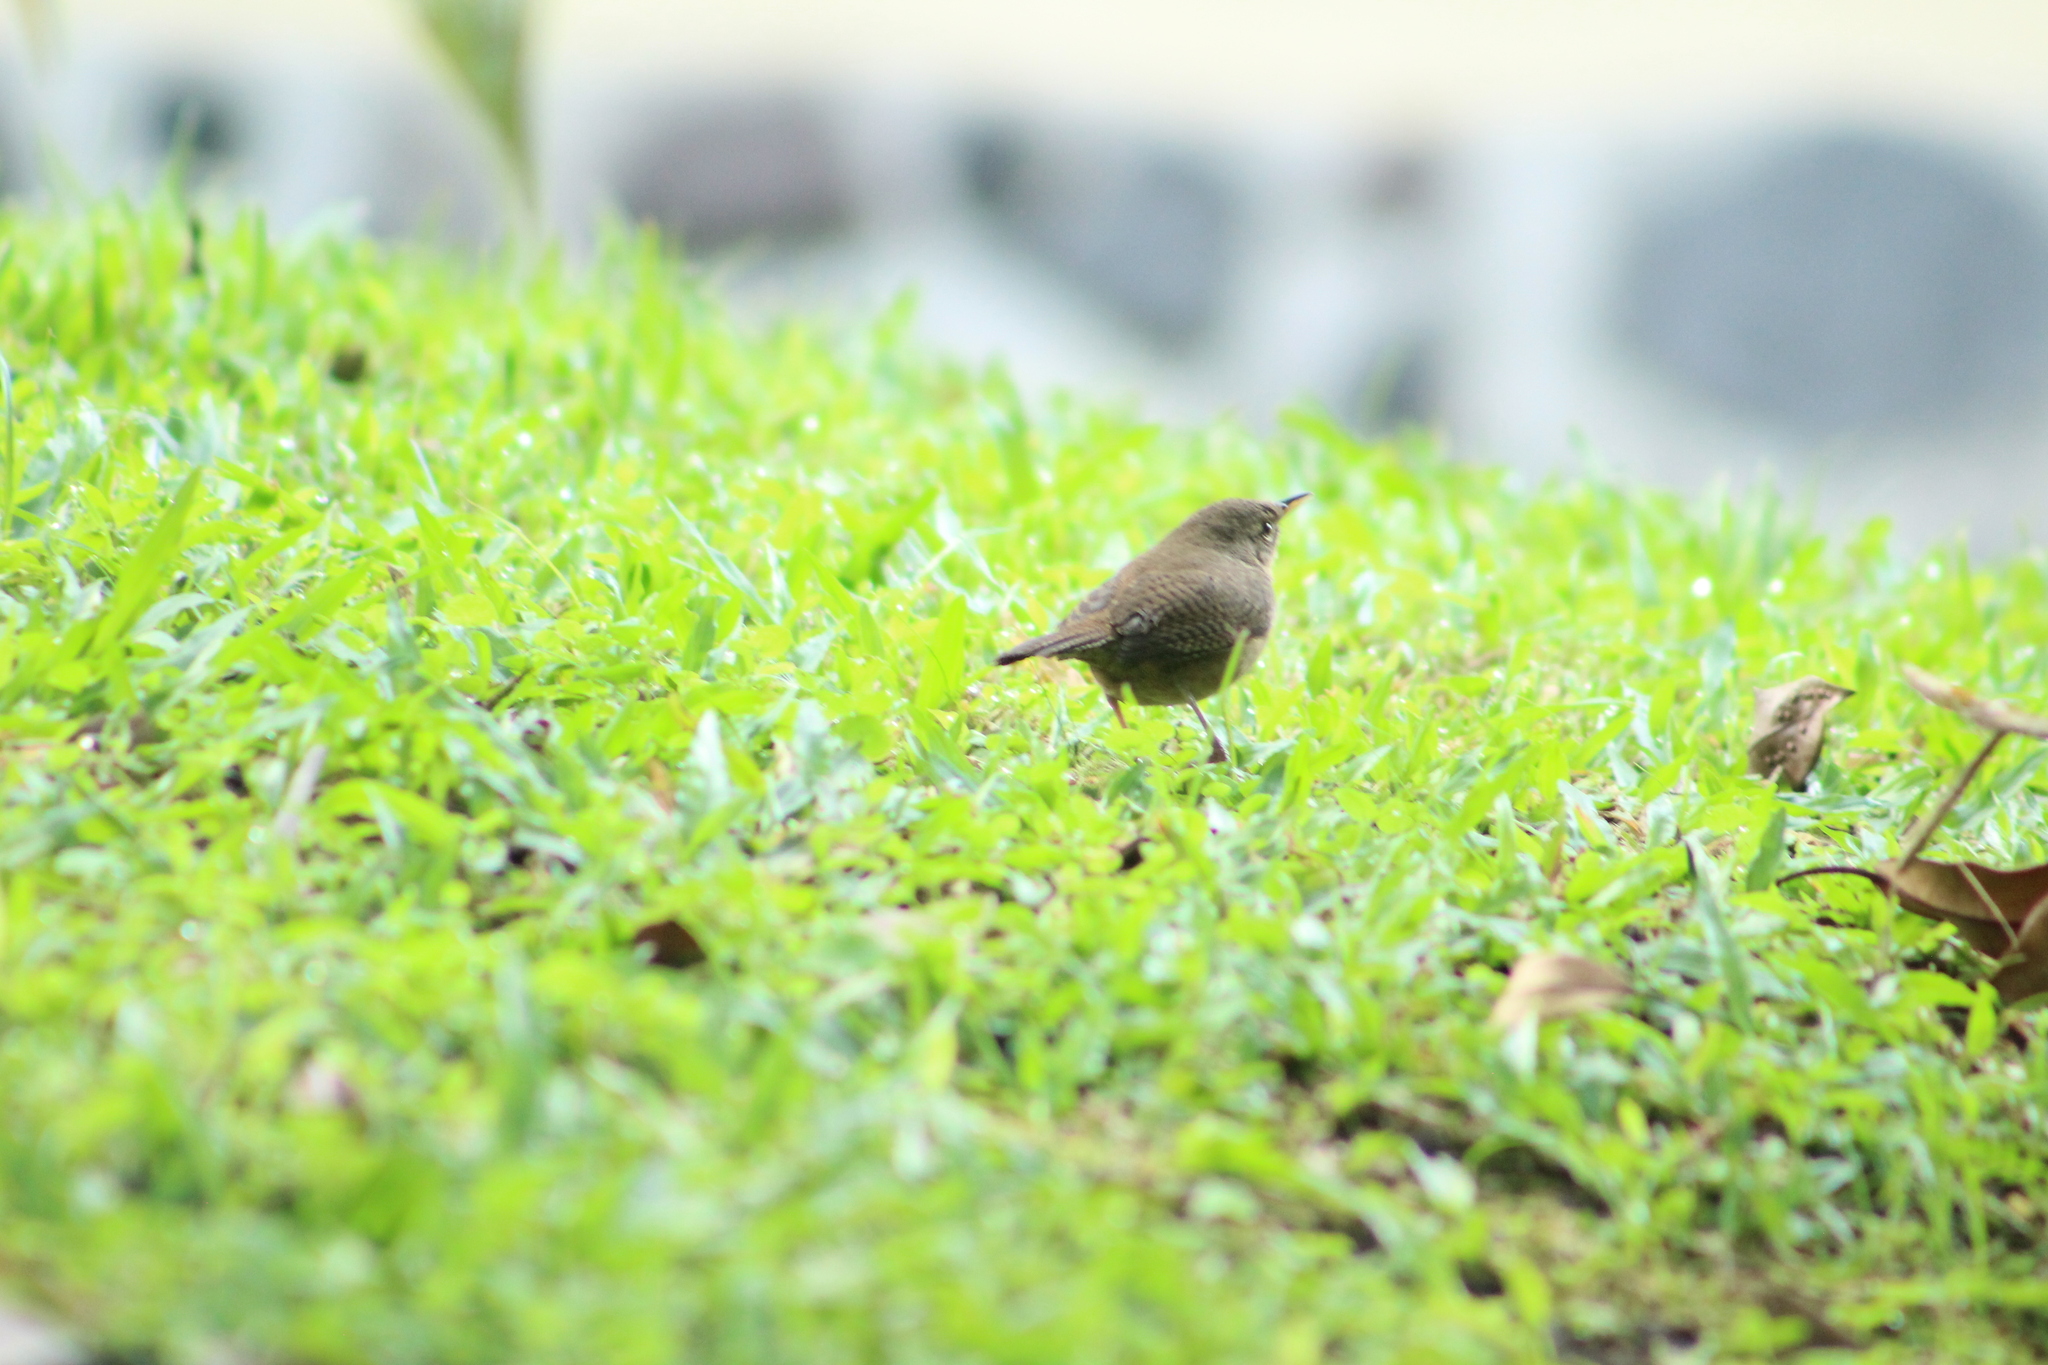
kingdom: Animalia
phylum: Chordata
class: Aves
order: Passeriformes
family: Troglodytidae
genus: Troglodytes
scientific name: Troglodytes aedon
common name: House wren
